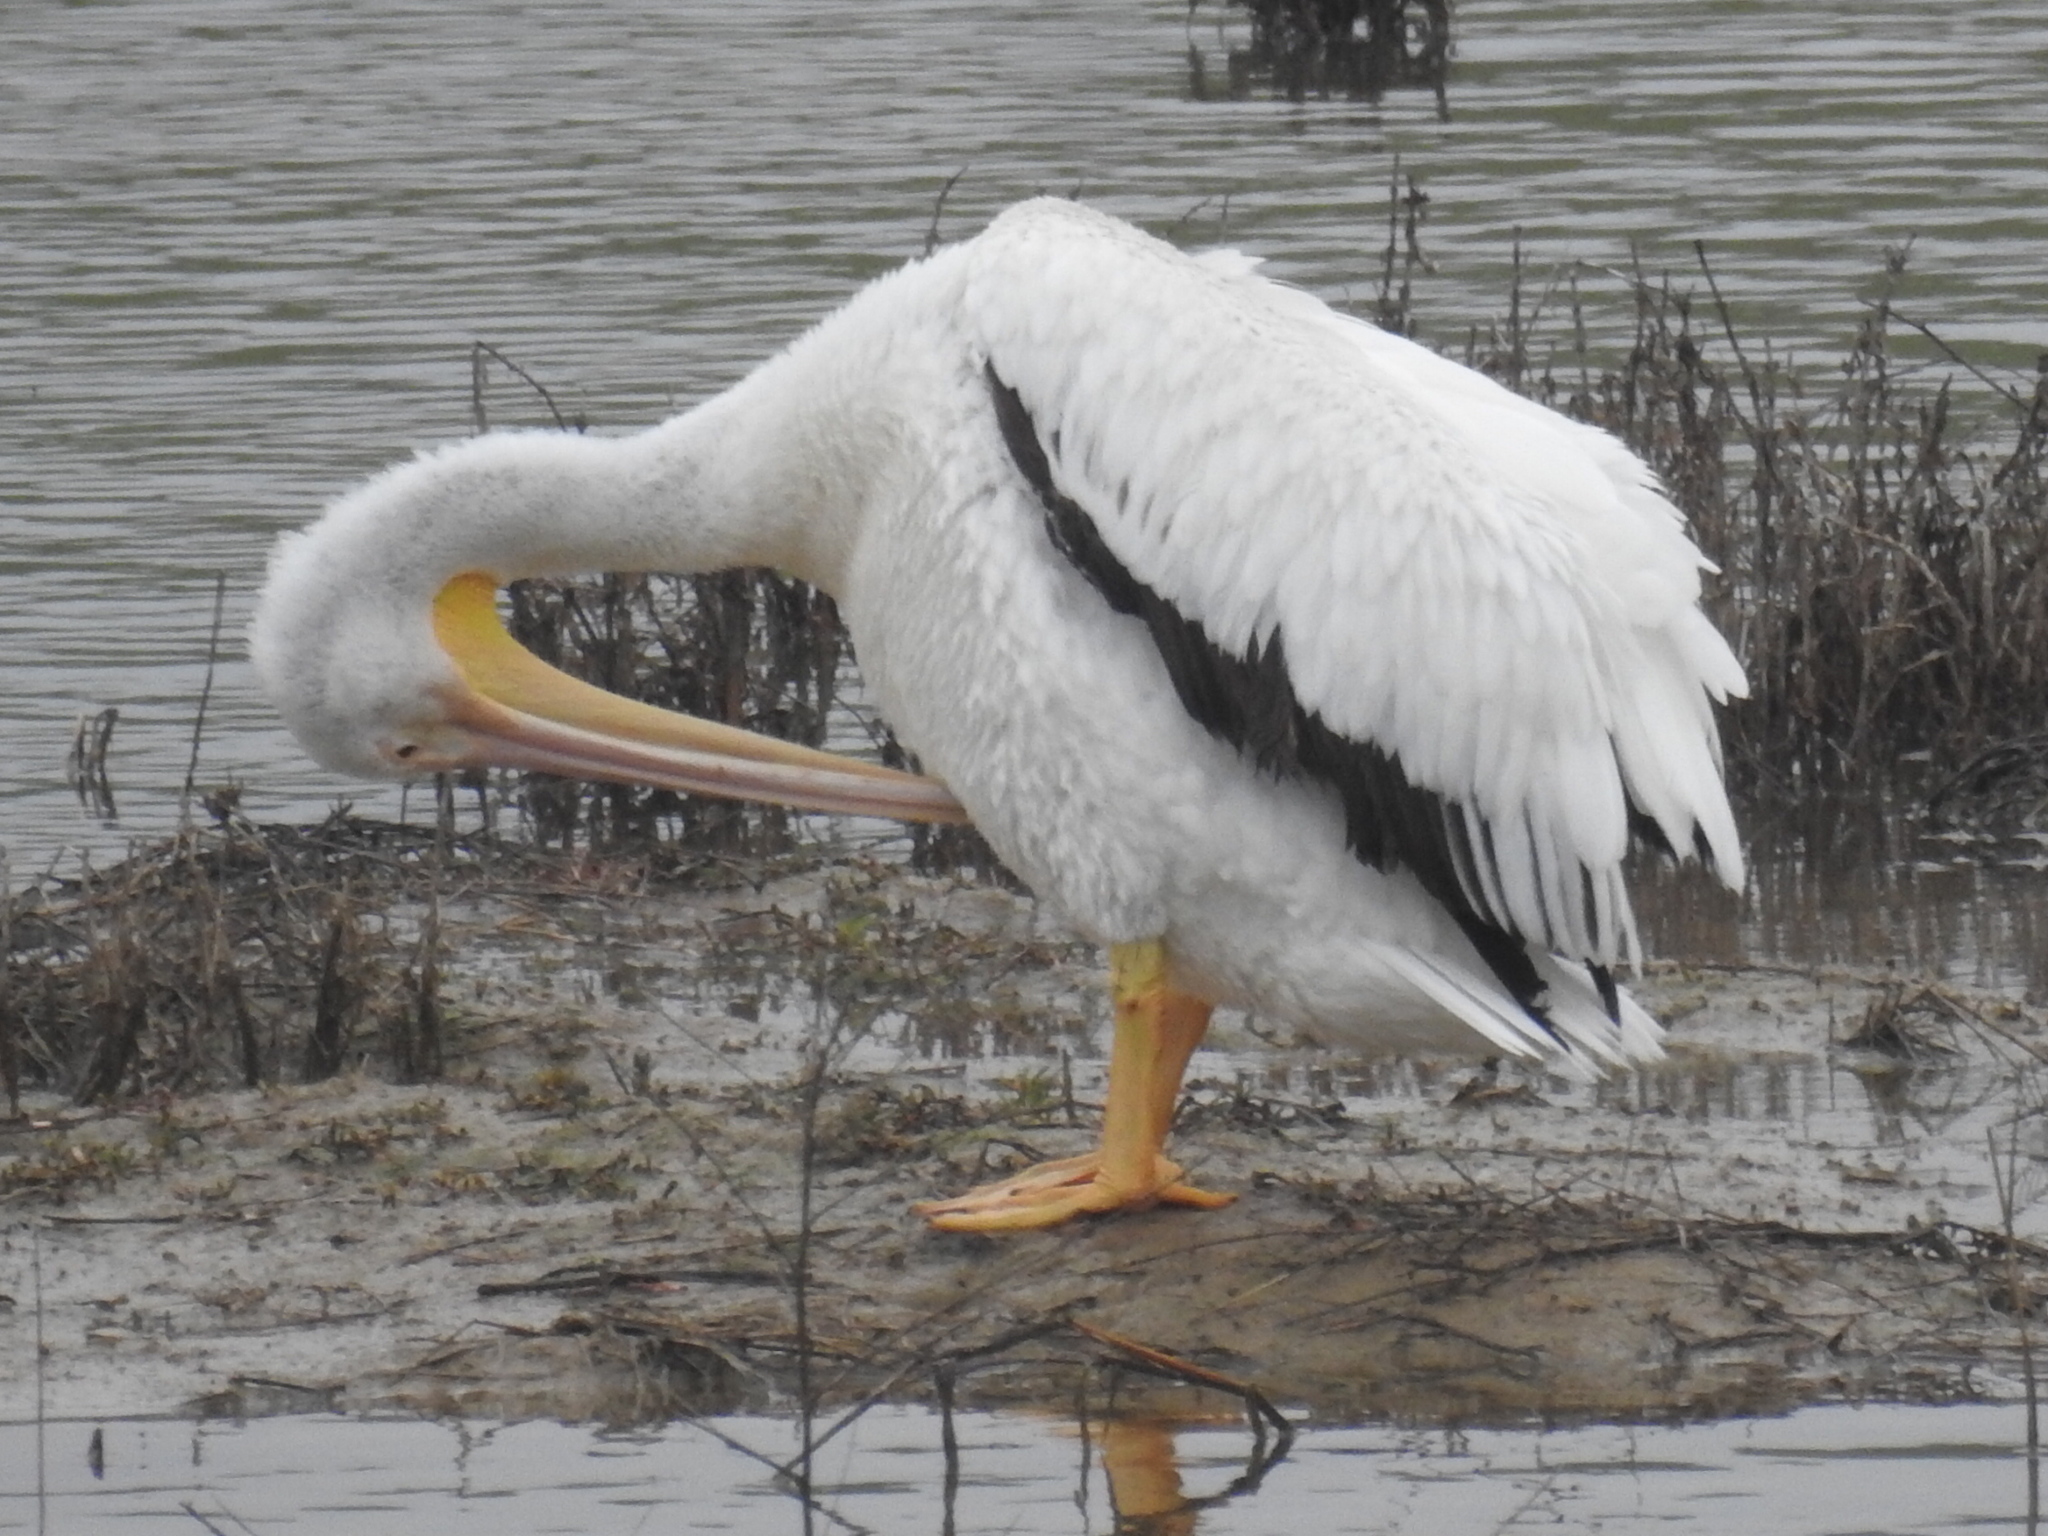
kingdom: Animalia
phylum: Chordata
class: Aves
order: Pelecaniformes
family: Pelecanidae
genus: Pelecanus
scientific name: Pelecanus erythrorhynchos
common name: American white pelican
